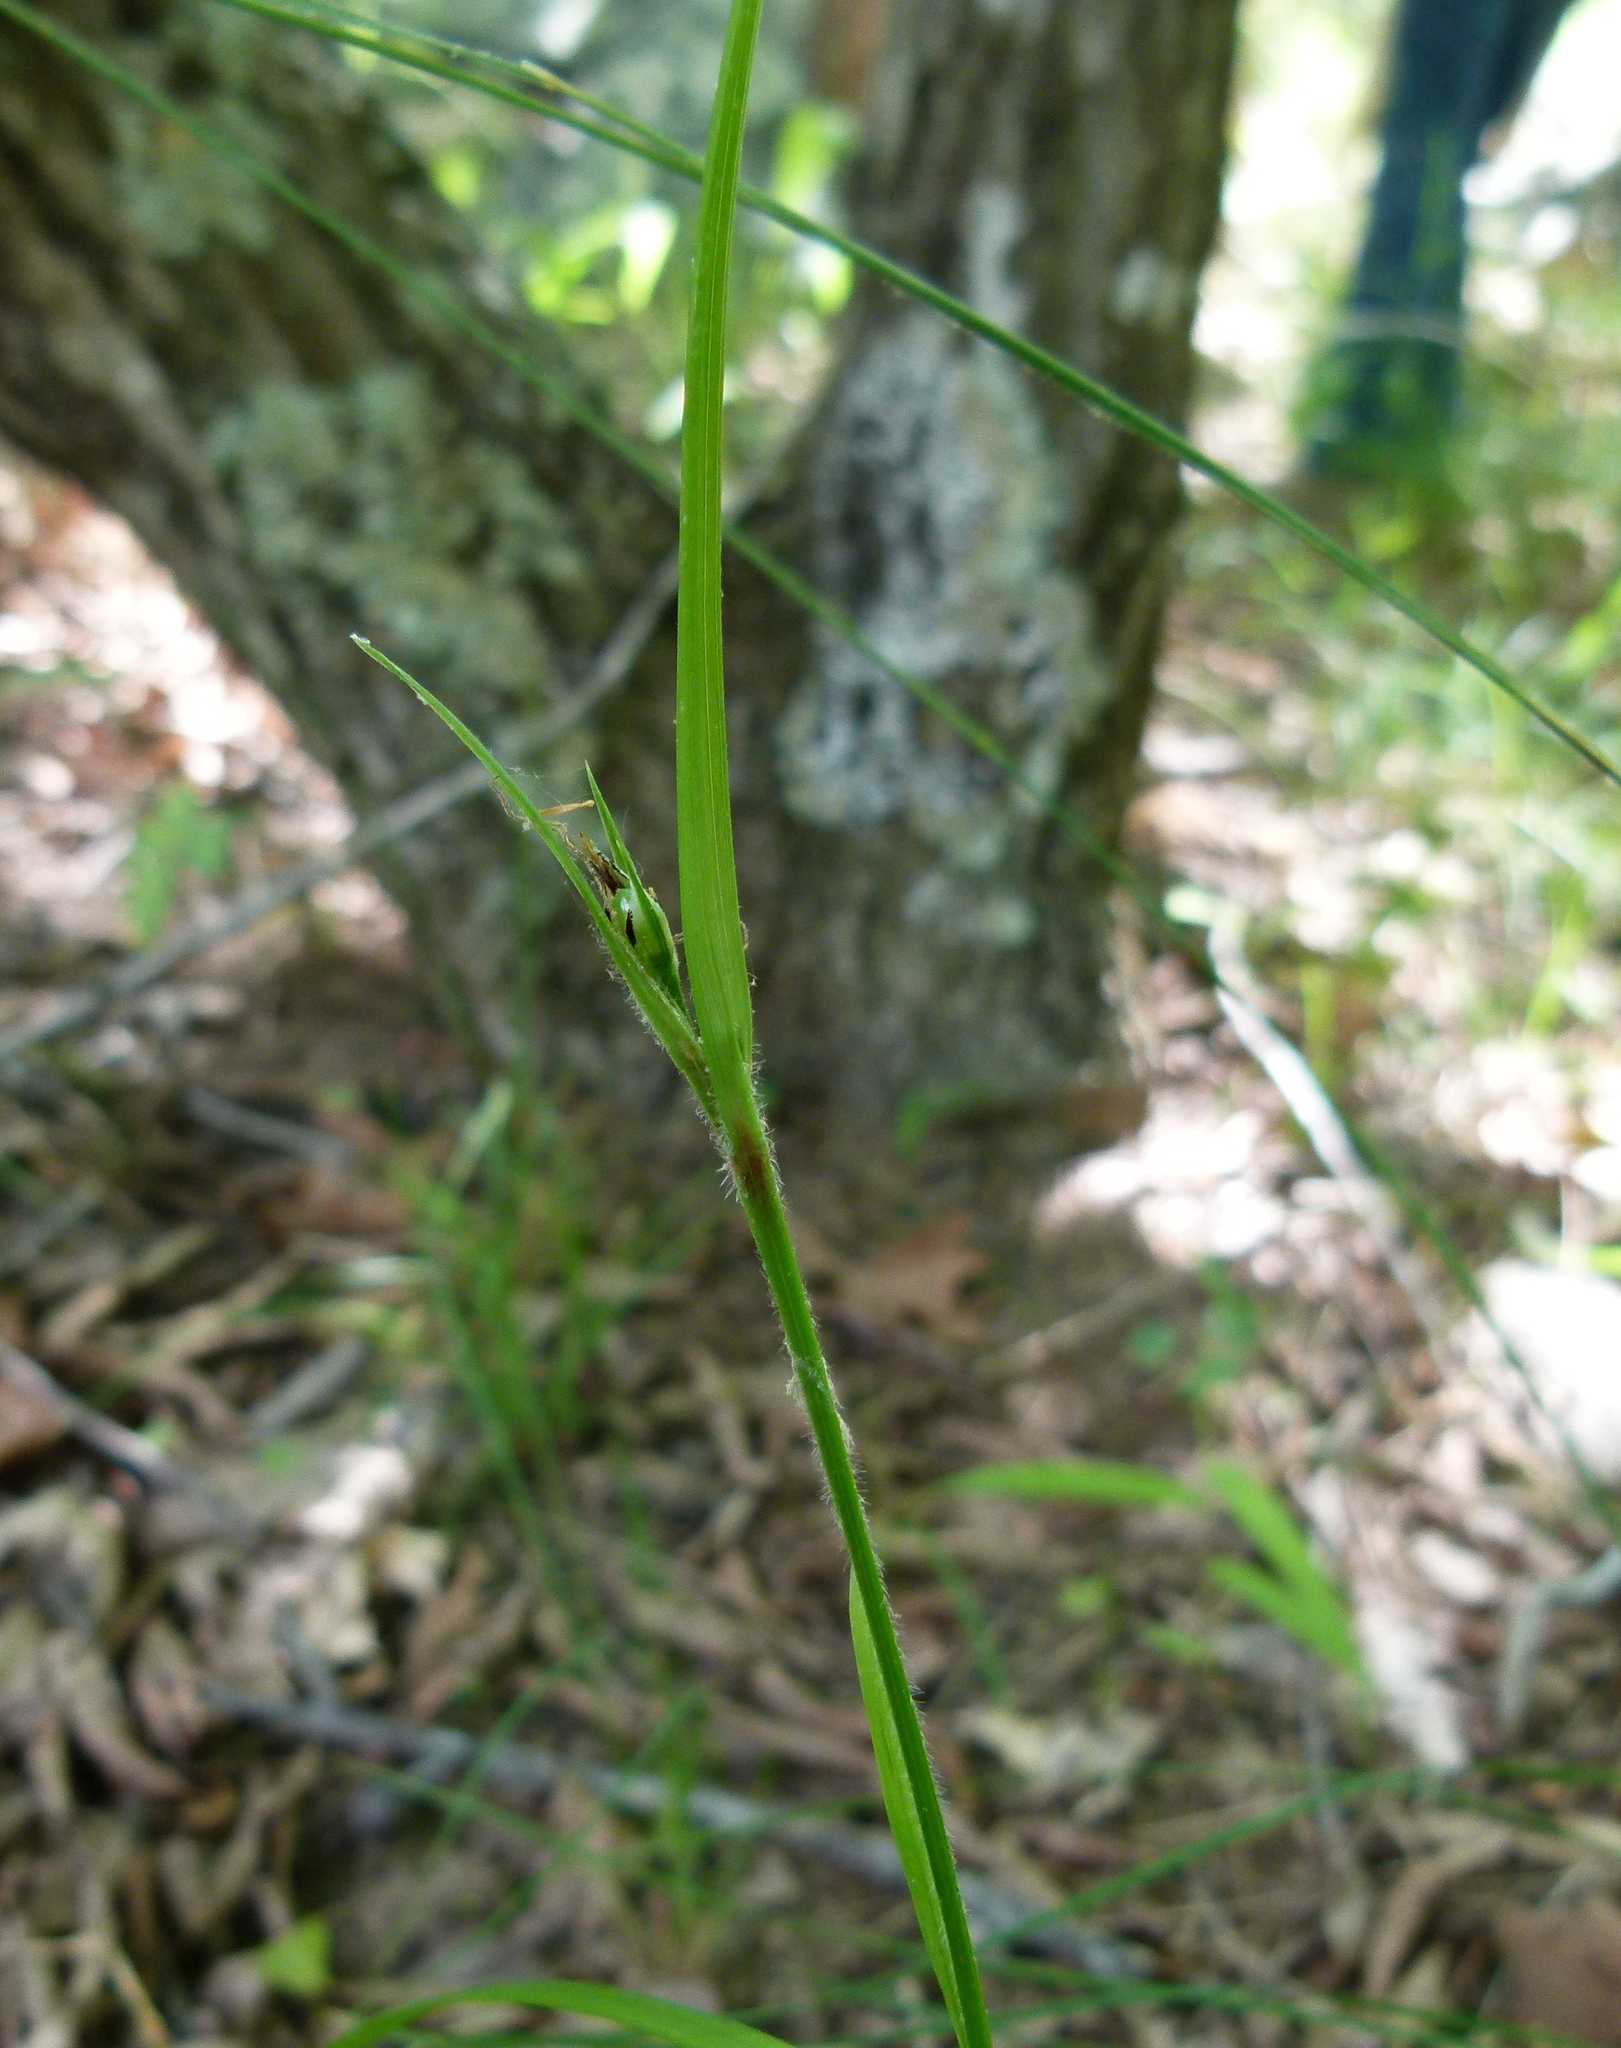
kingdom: Plantae
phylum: Tracheophyta
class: Liliopsida
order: Poales
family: Cyperaceae
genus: Scleria
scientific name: Scleria oligantha
